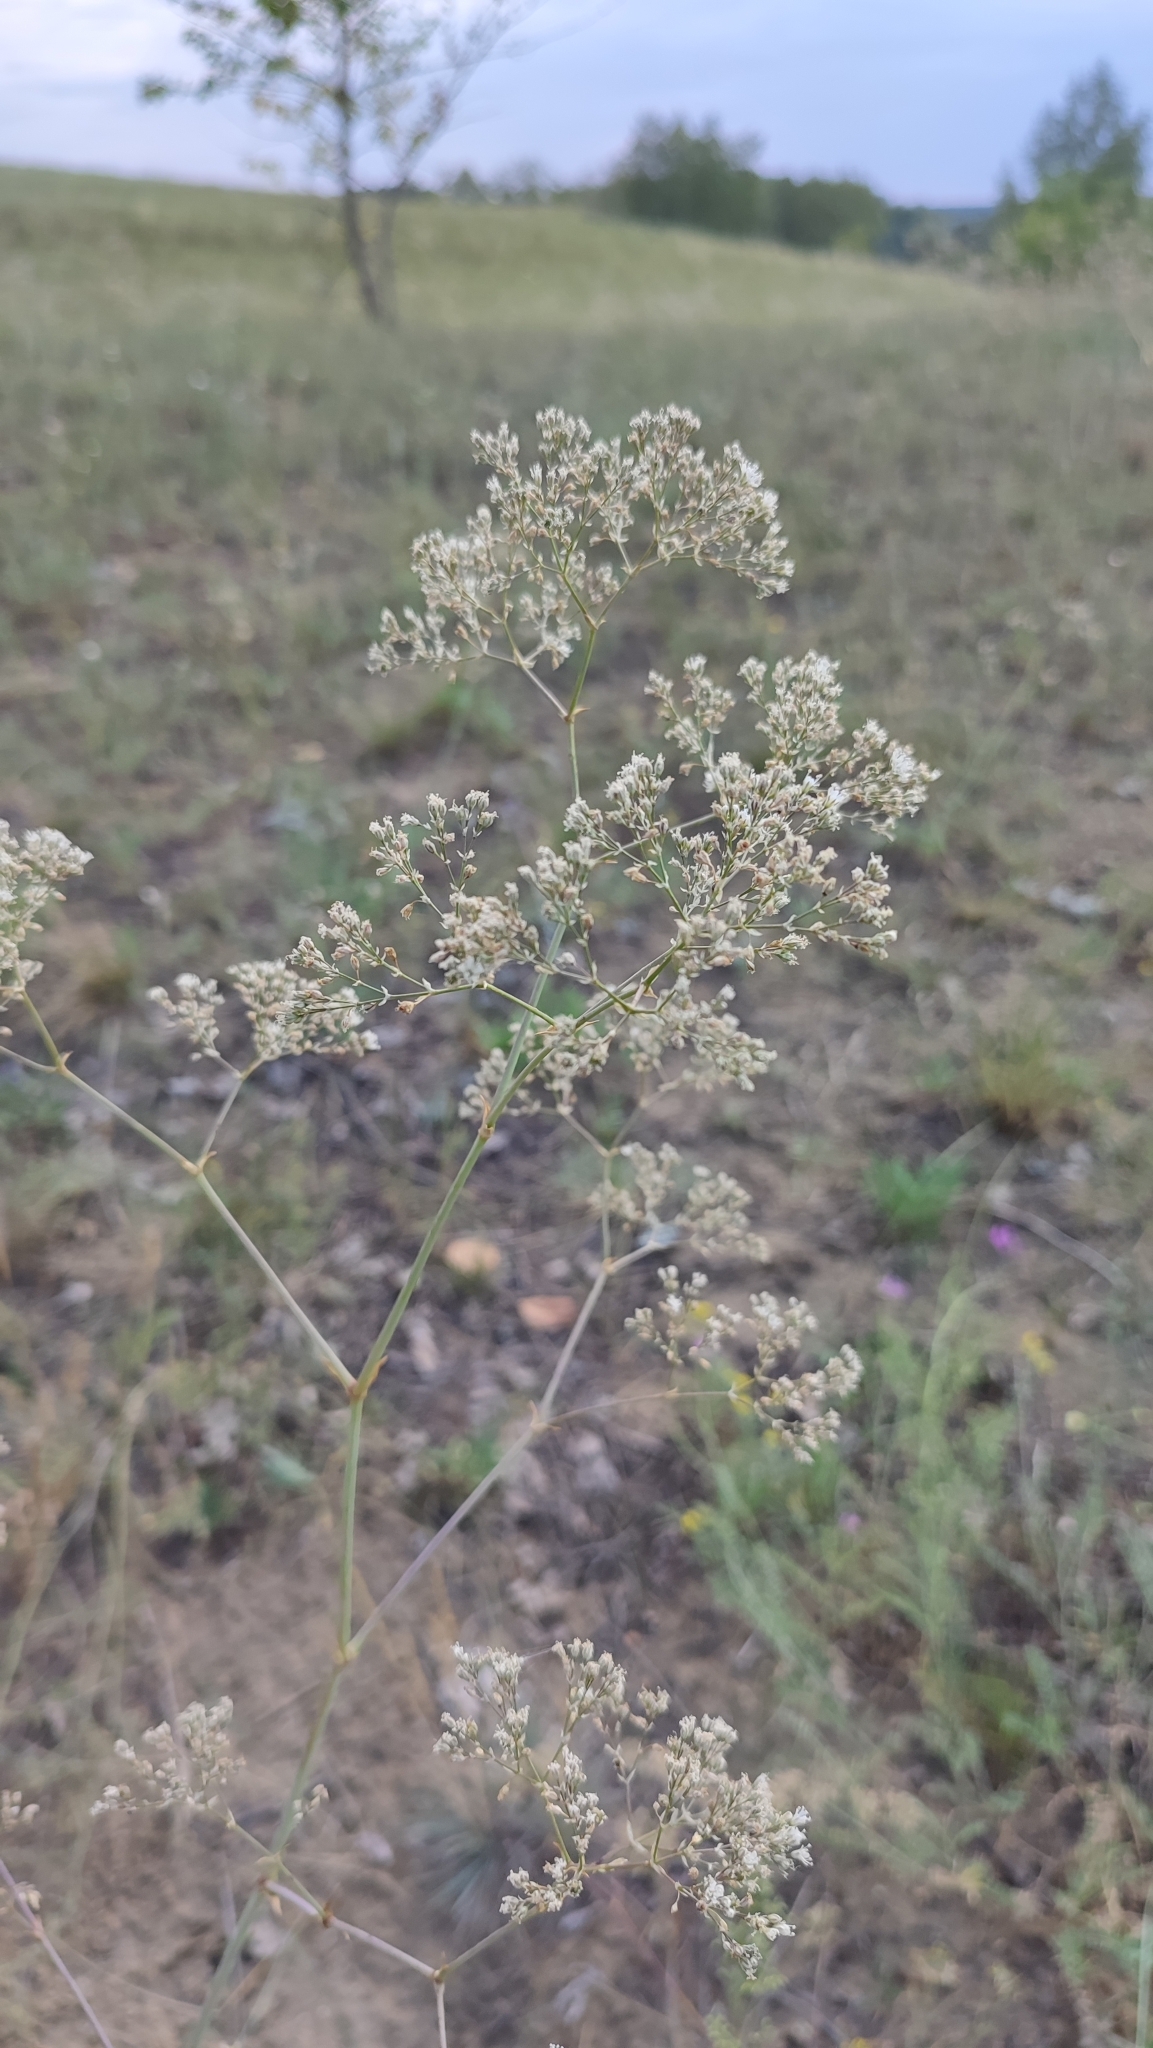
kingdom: Plantae
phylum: Tracheophyta
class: Magnoliopsida
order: Caryophyllales
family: Caryophyllaceae
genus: Gypsophila
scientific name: Gypsophila altissima
